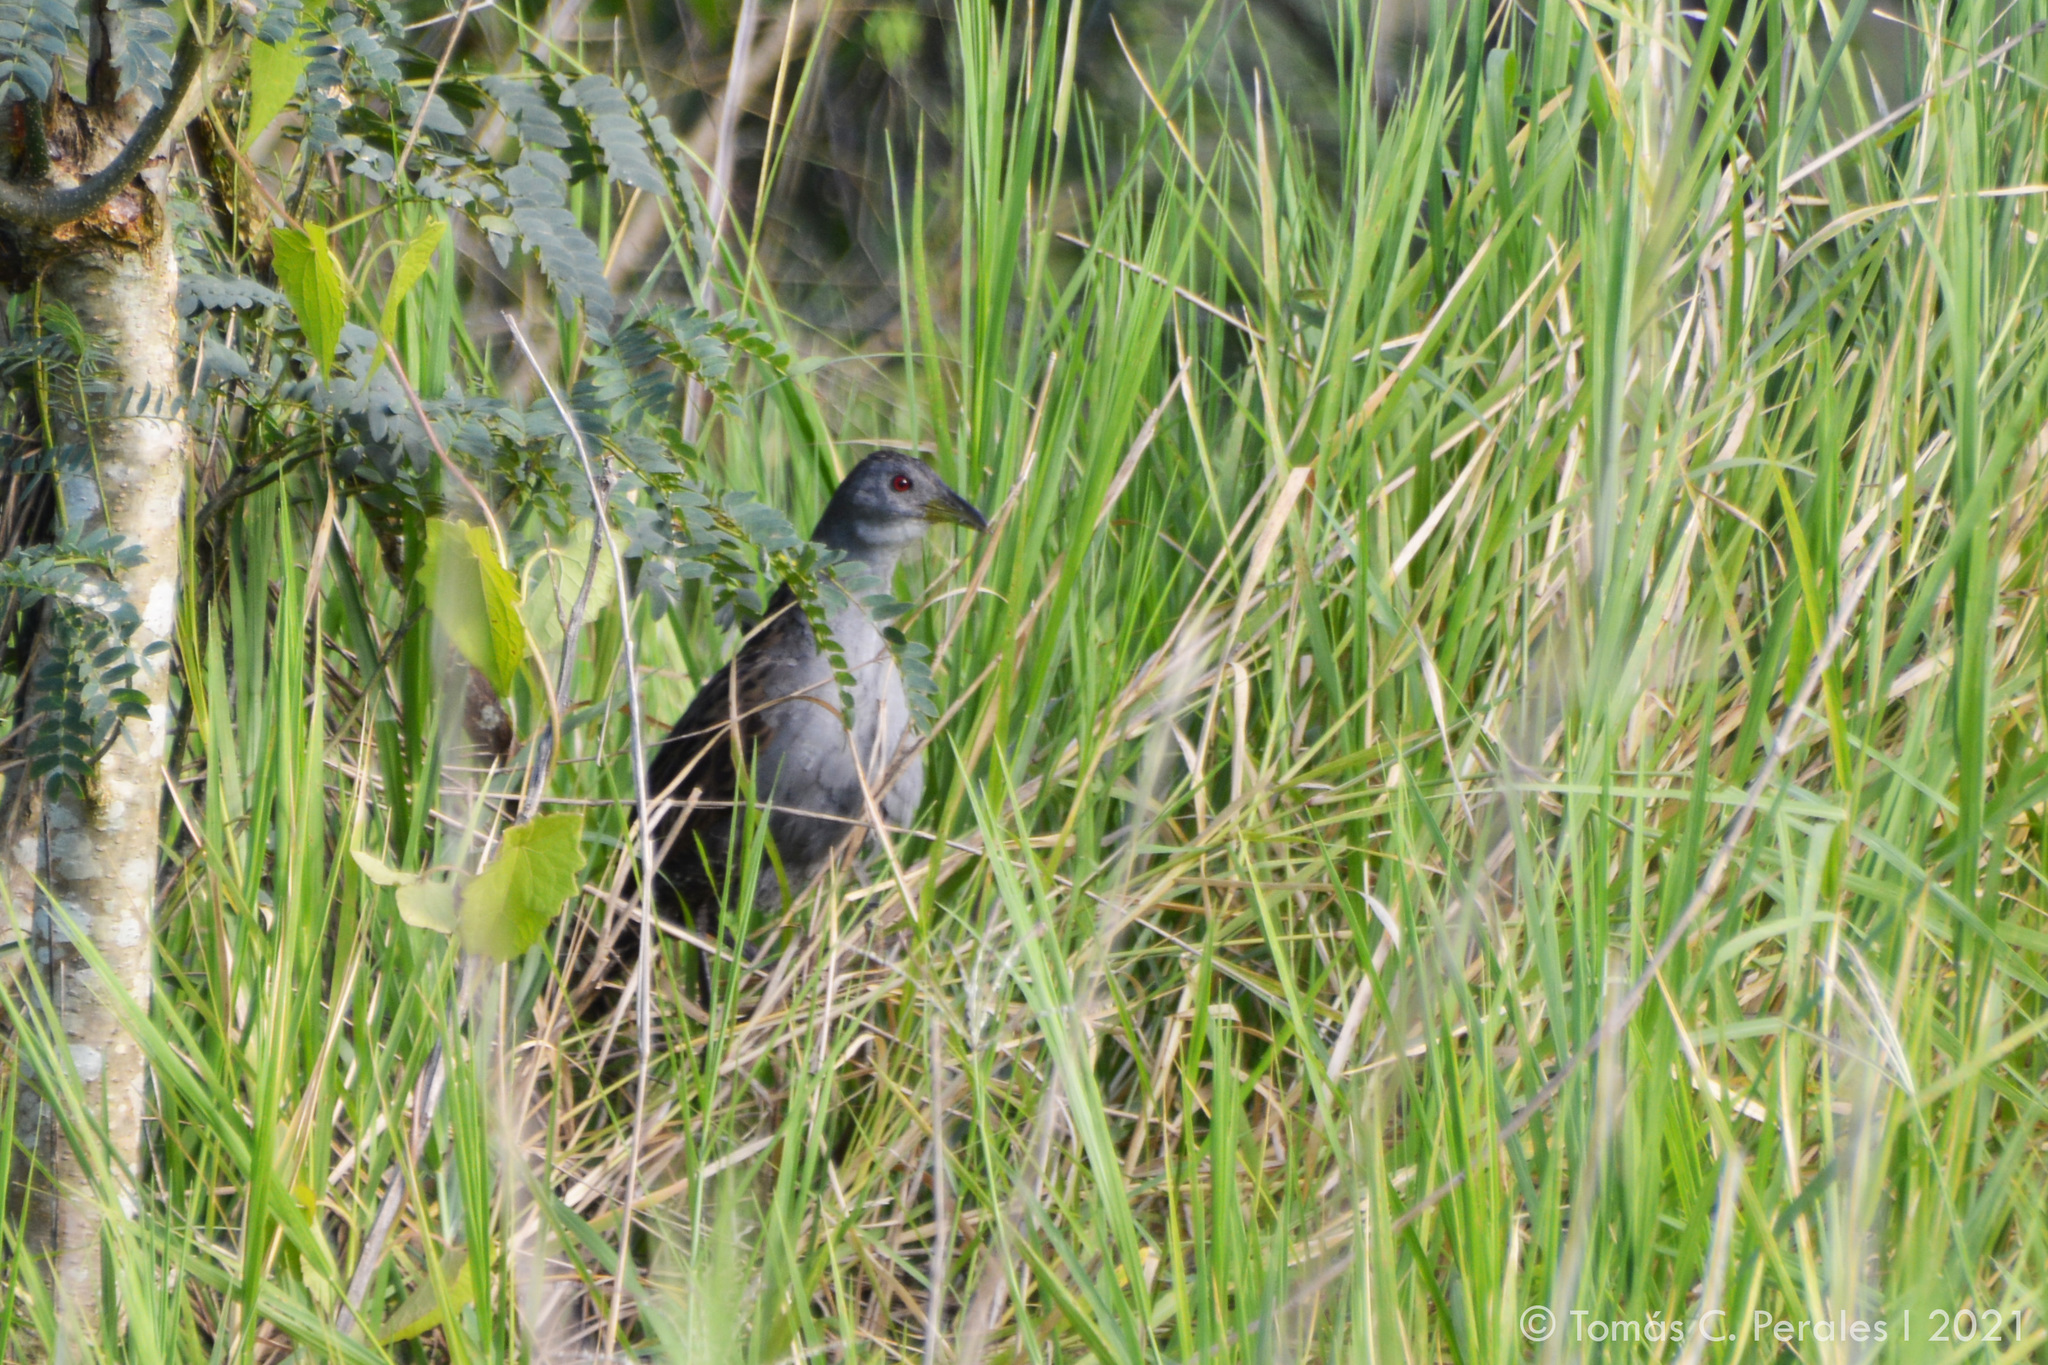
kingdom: Animalia
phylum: Chordata
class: Aves
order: Gruiformes
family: Rallidae
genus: Porzana
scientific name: Porzana albicollis
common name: Ash-throated crake
